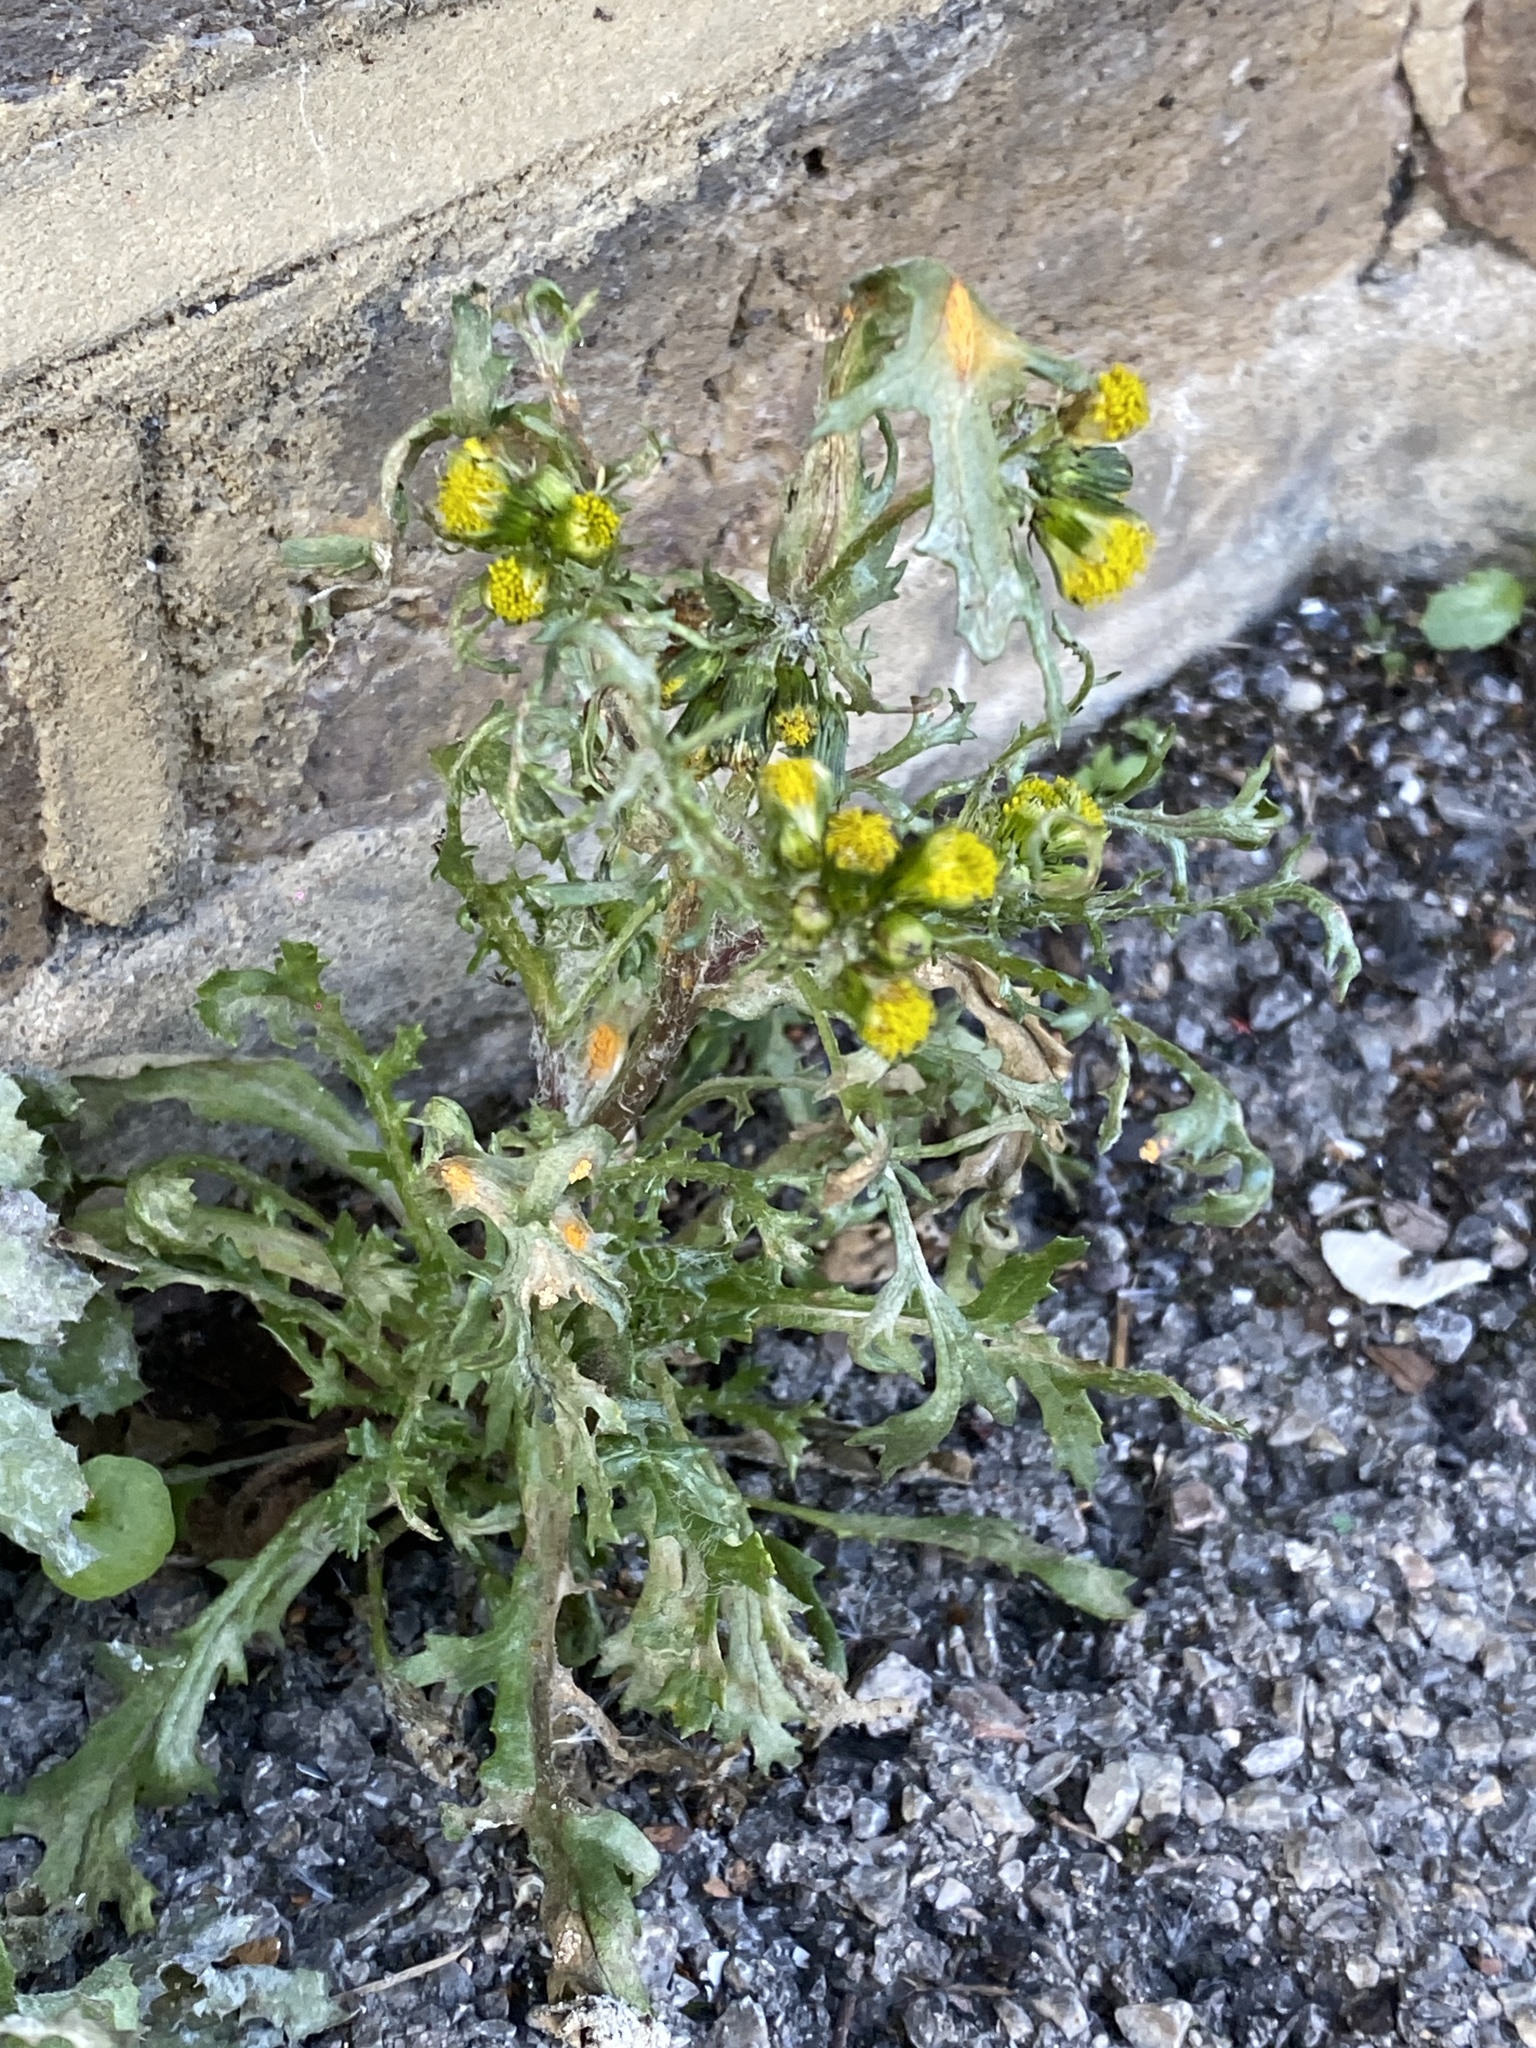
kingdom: Plantae
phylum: Tracheophyta
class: Magnoliopsida
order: Asterales
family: Asteraceae
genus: Senecio
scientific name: Senecio vulgaris
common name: Old-man-in-the-spring
